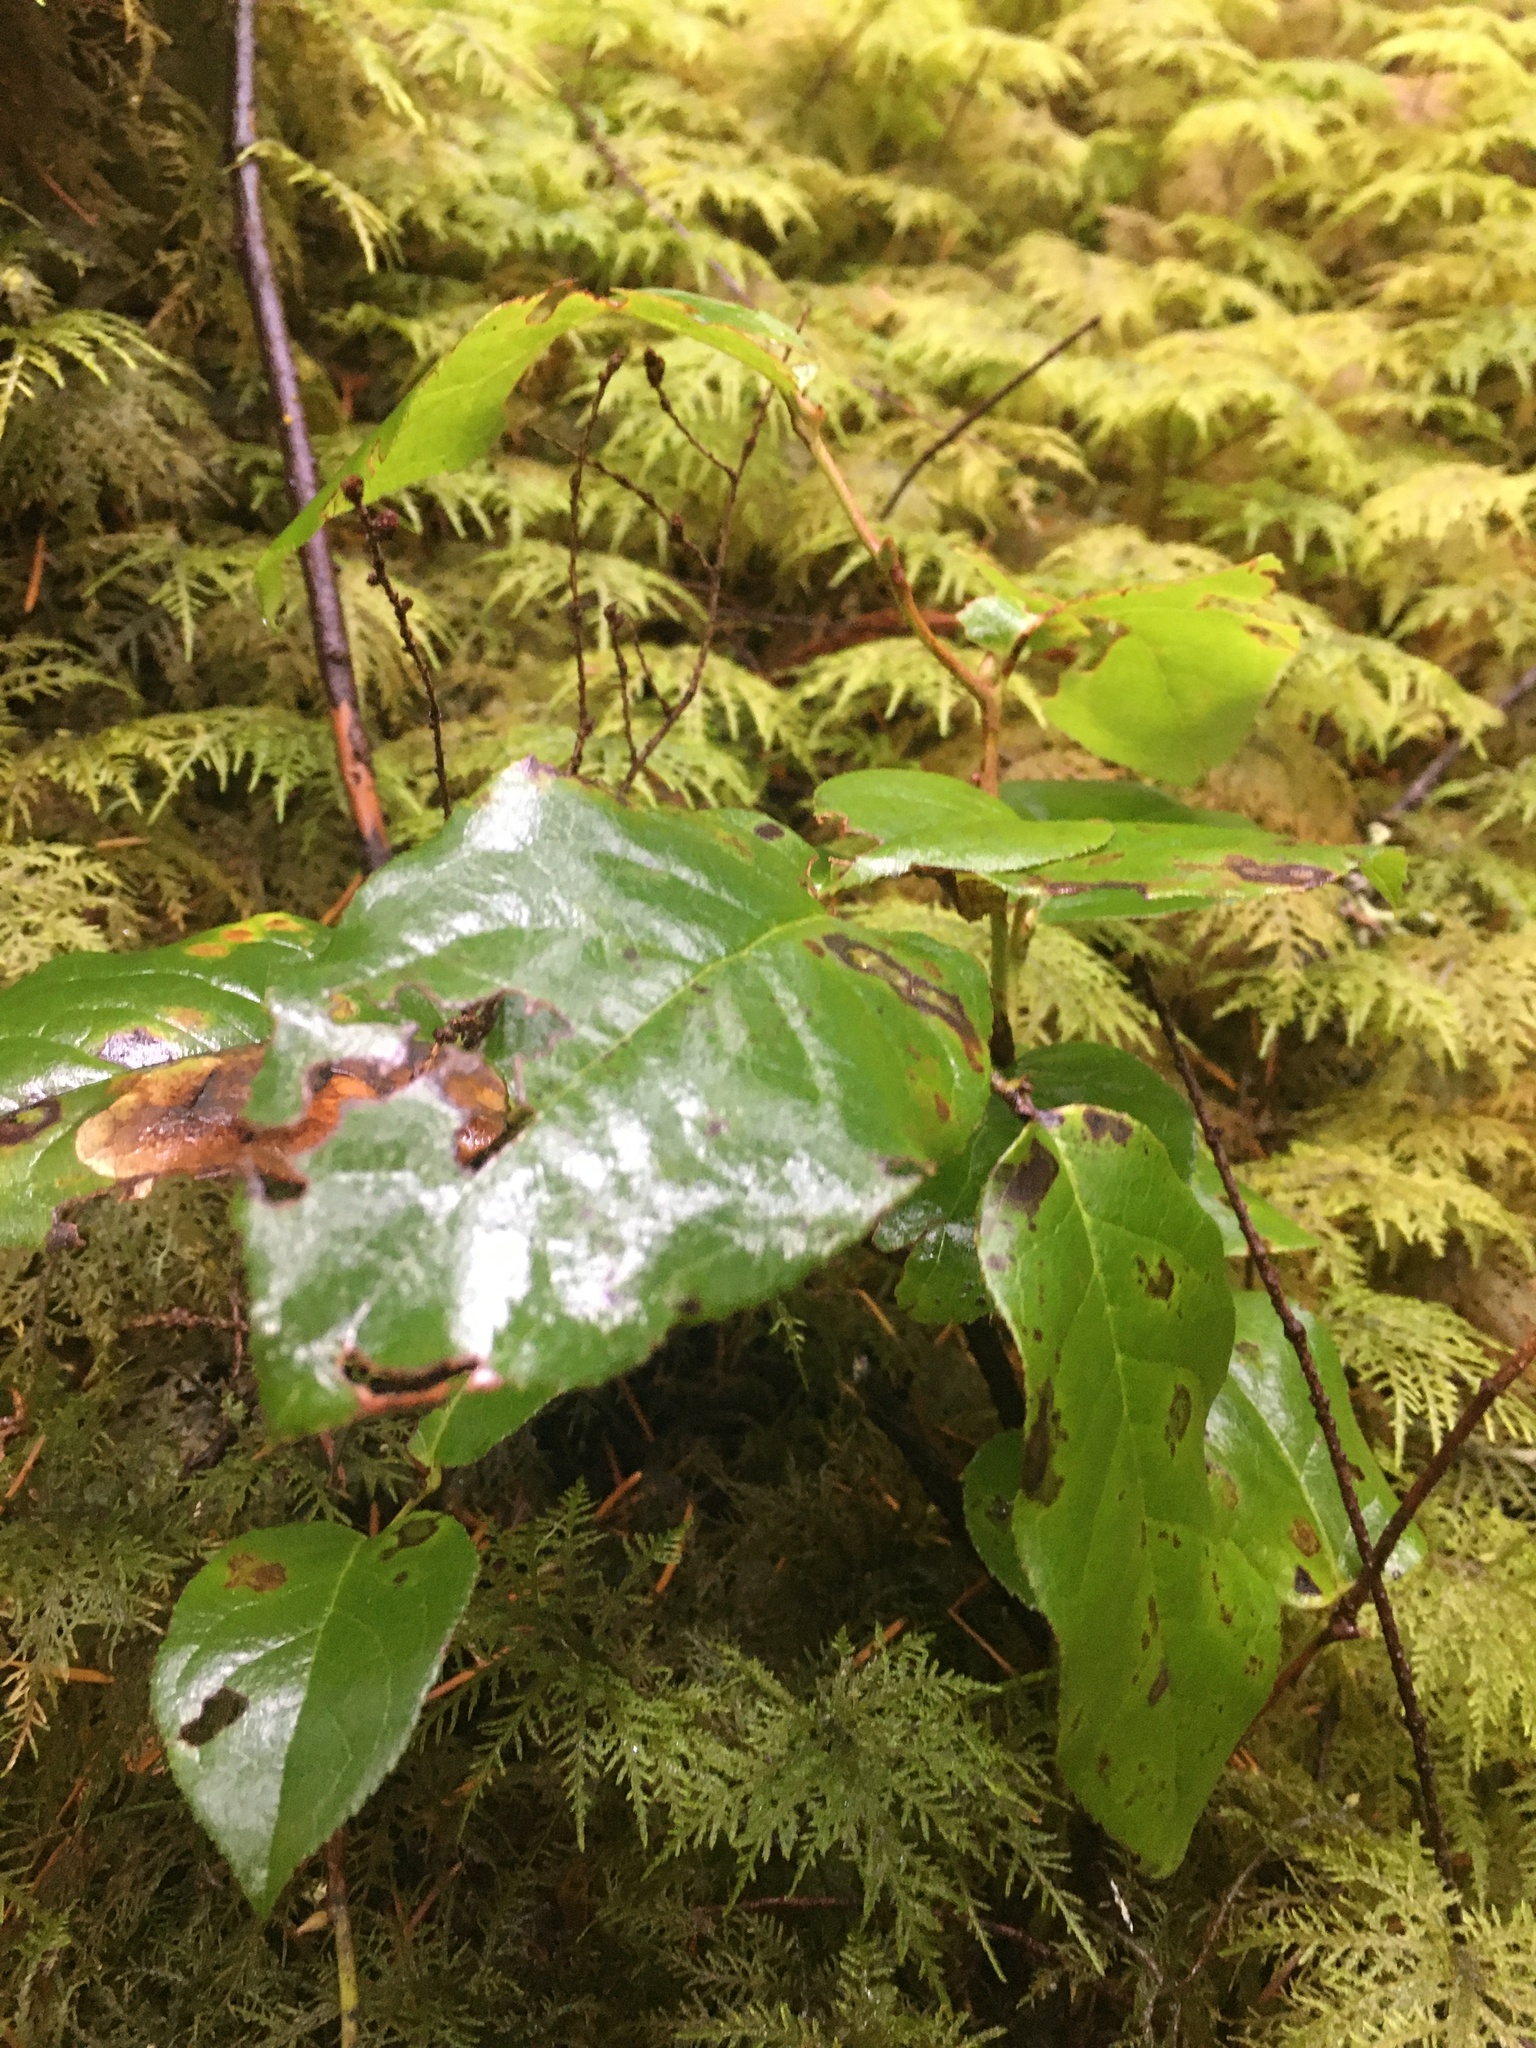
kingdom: Plantae
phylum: Tracheophyta
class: Magnoliopsida
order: Ericales
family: Ericaceae
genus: Gaultheria
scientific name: Gaultheria shallon
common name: Shallon
